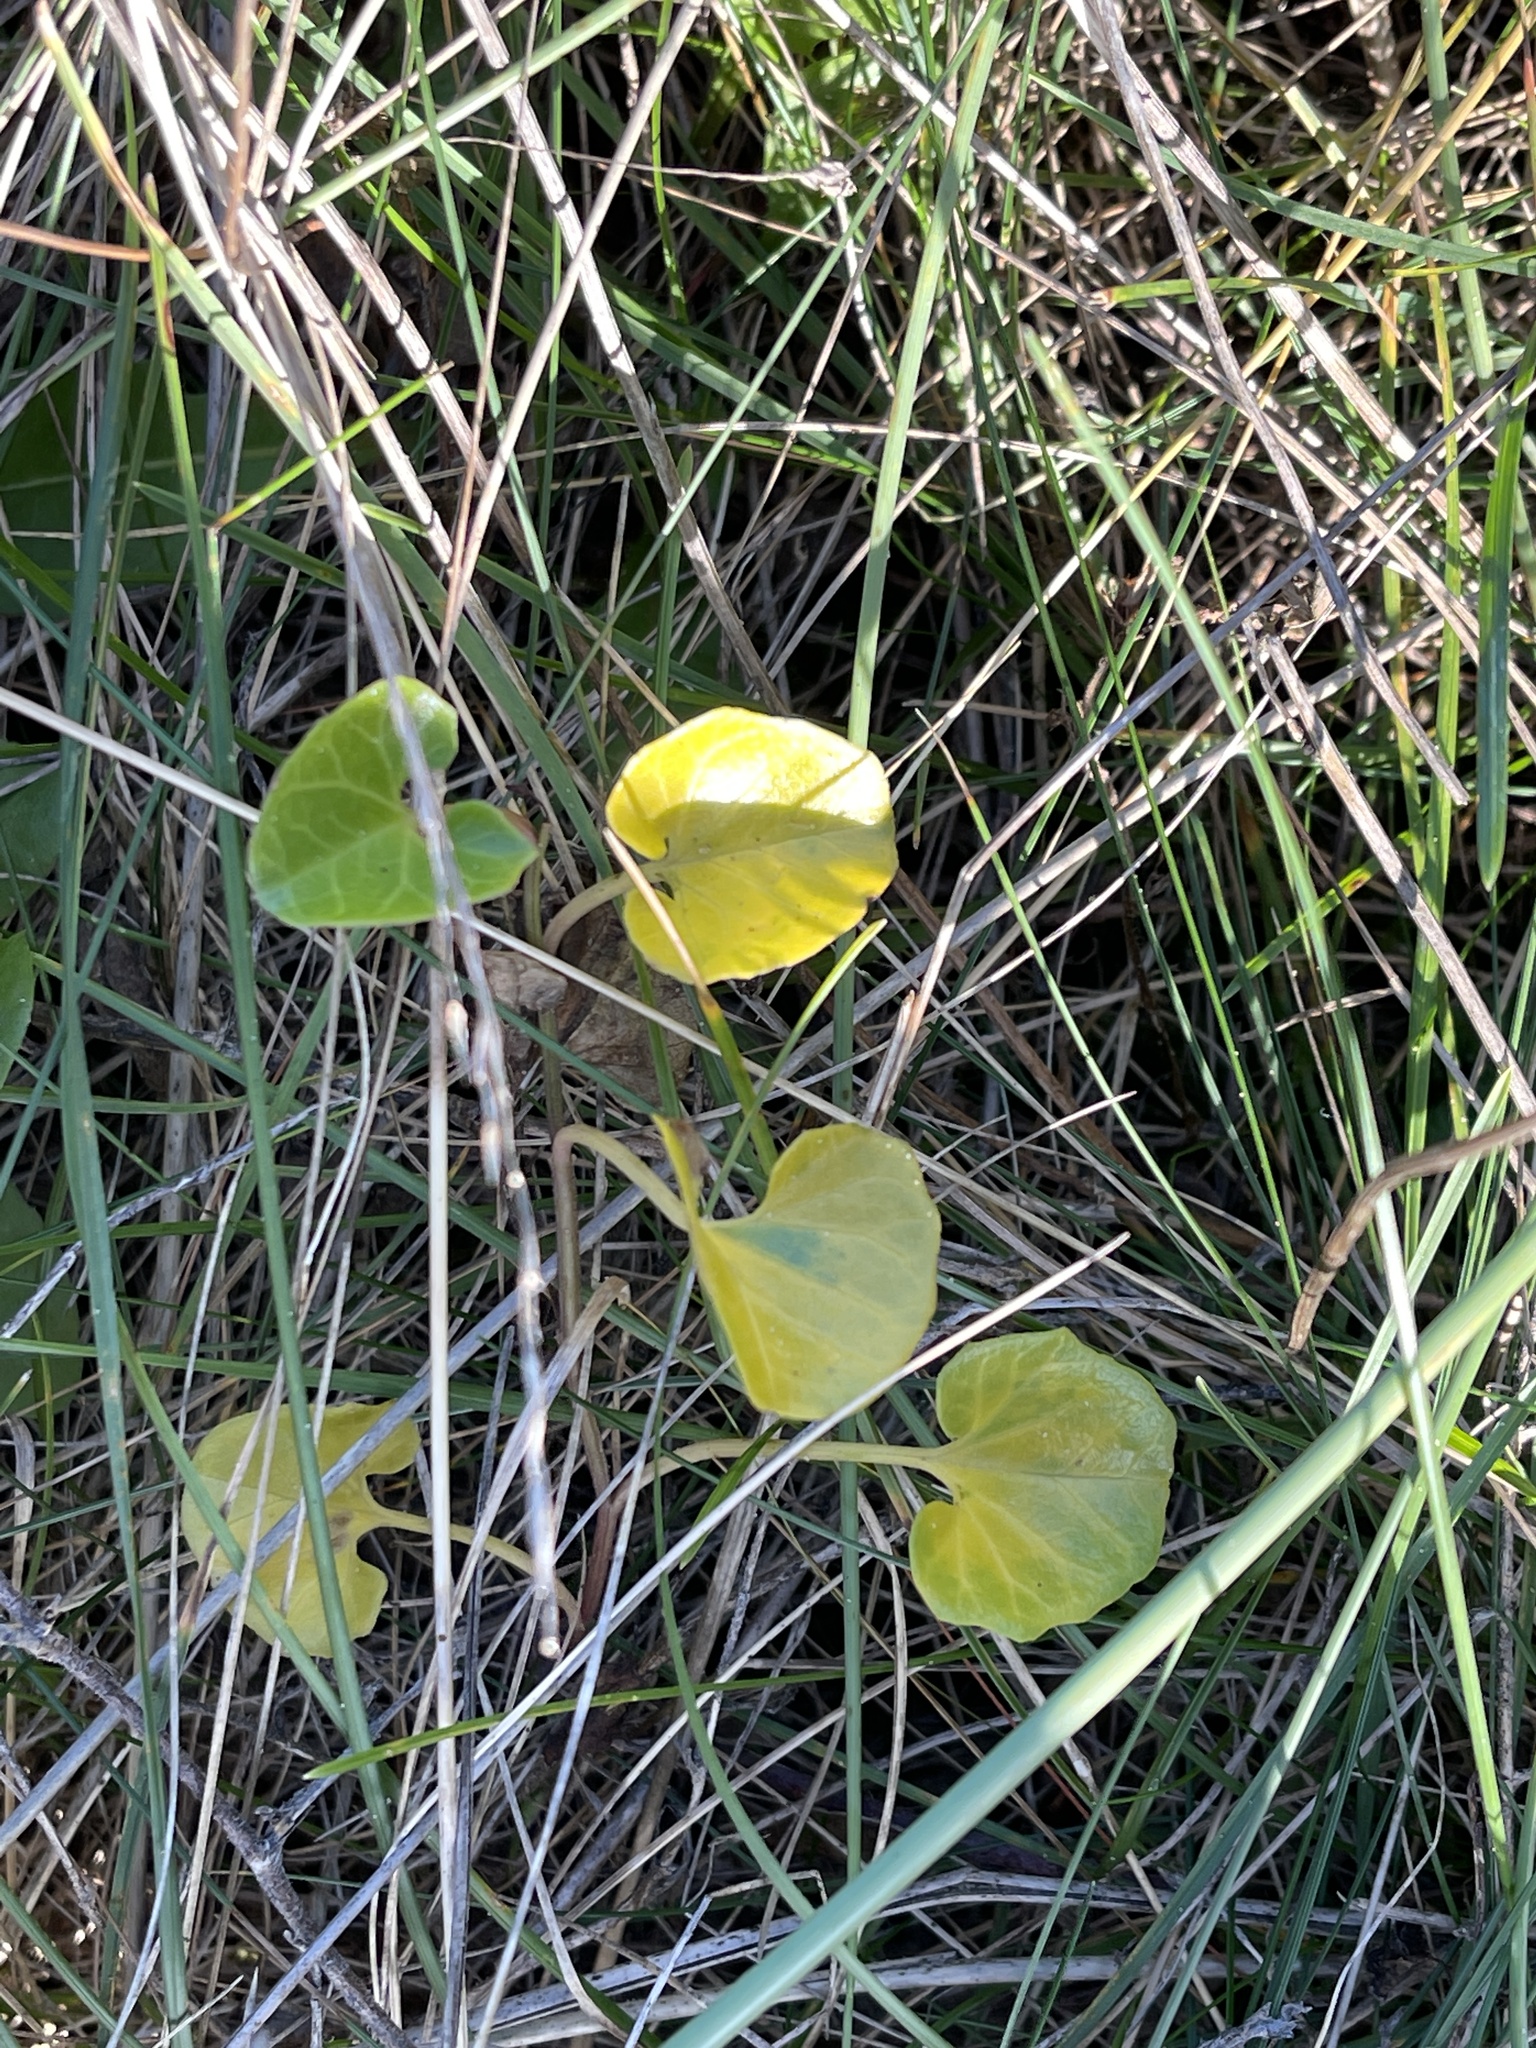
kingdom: Plantae
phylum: Tracheophyta
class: Magnoliopsida
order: Solanales
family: Convolvulaceae
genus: Calystegia
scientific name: Calystegia soldanella
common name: Sea bindweed
